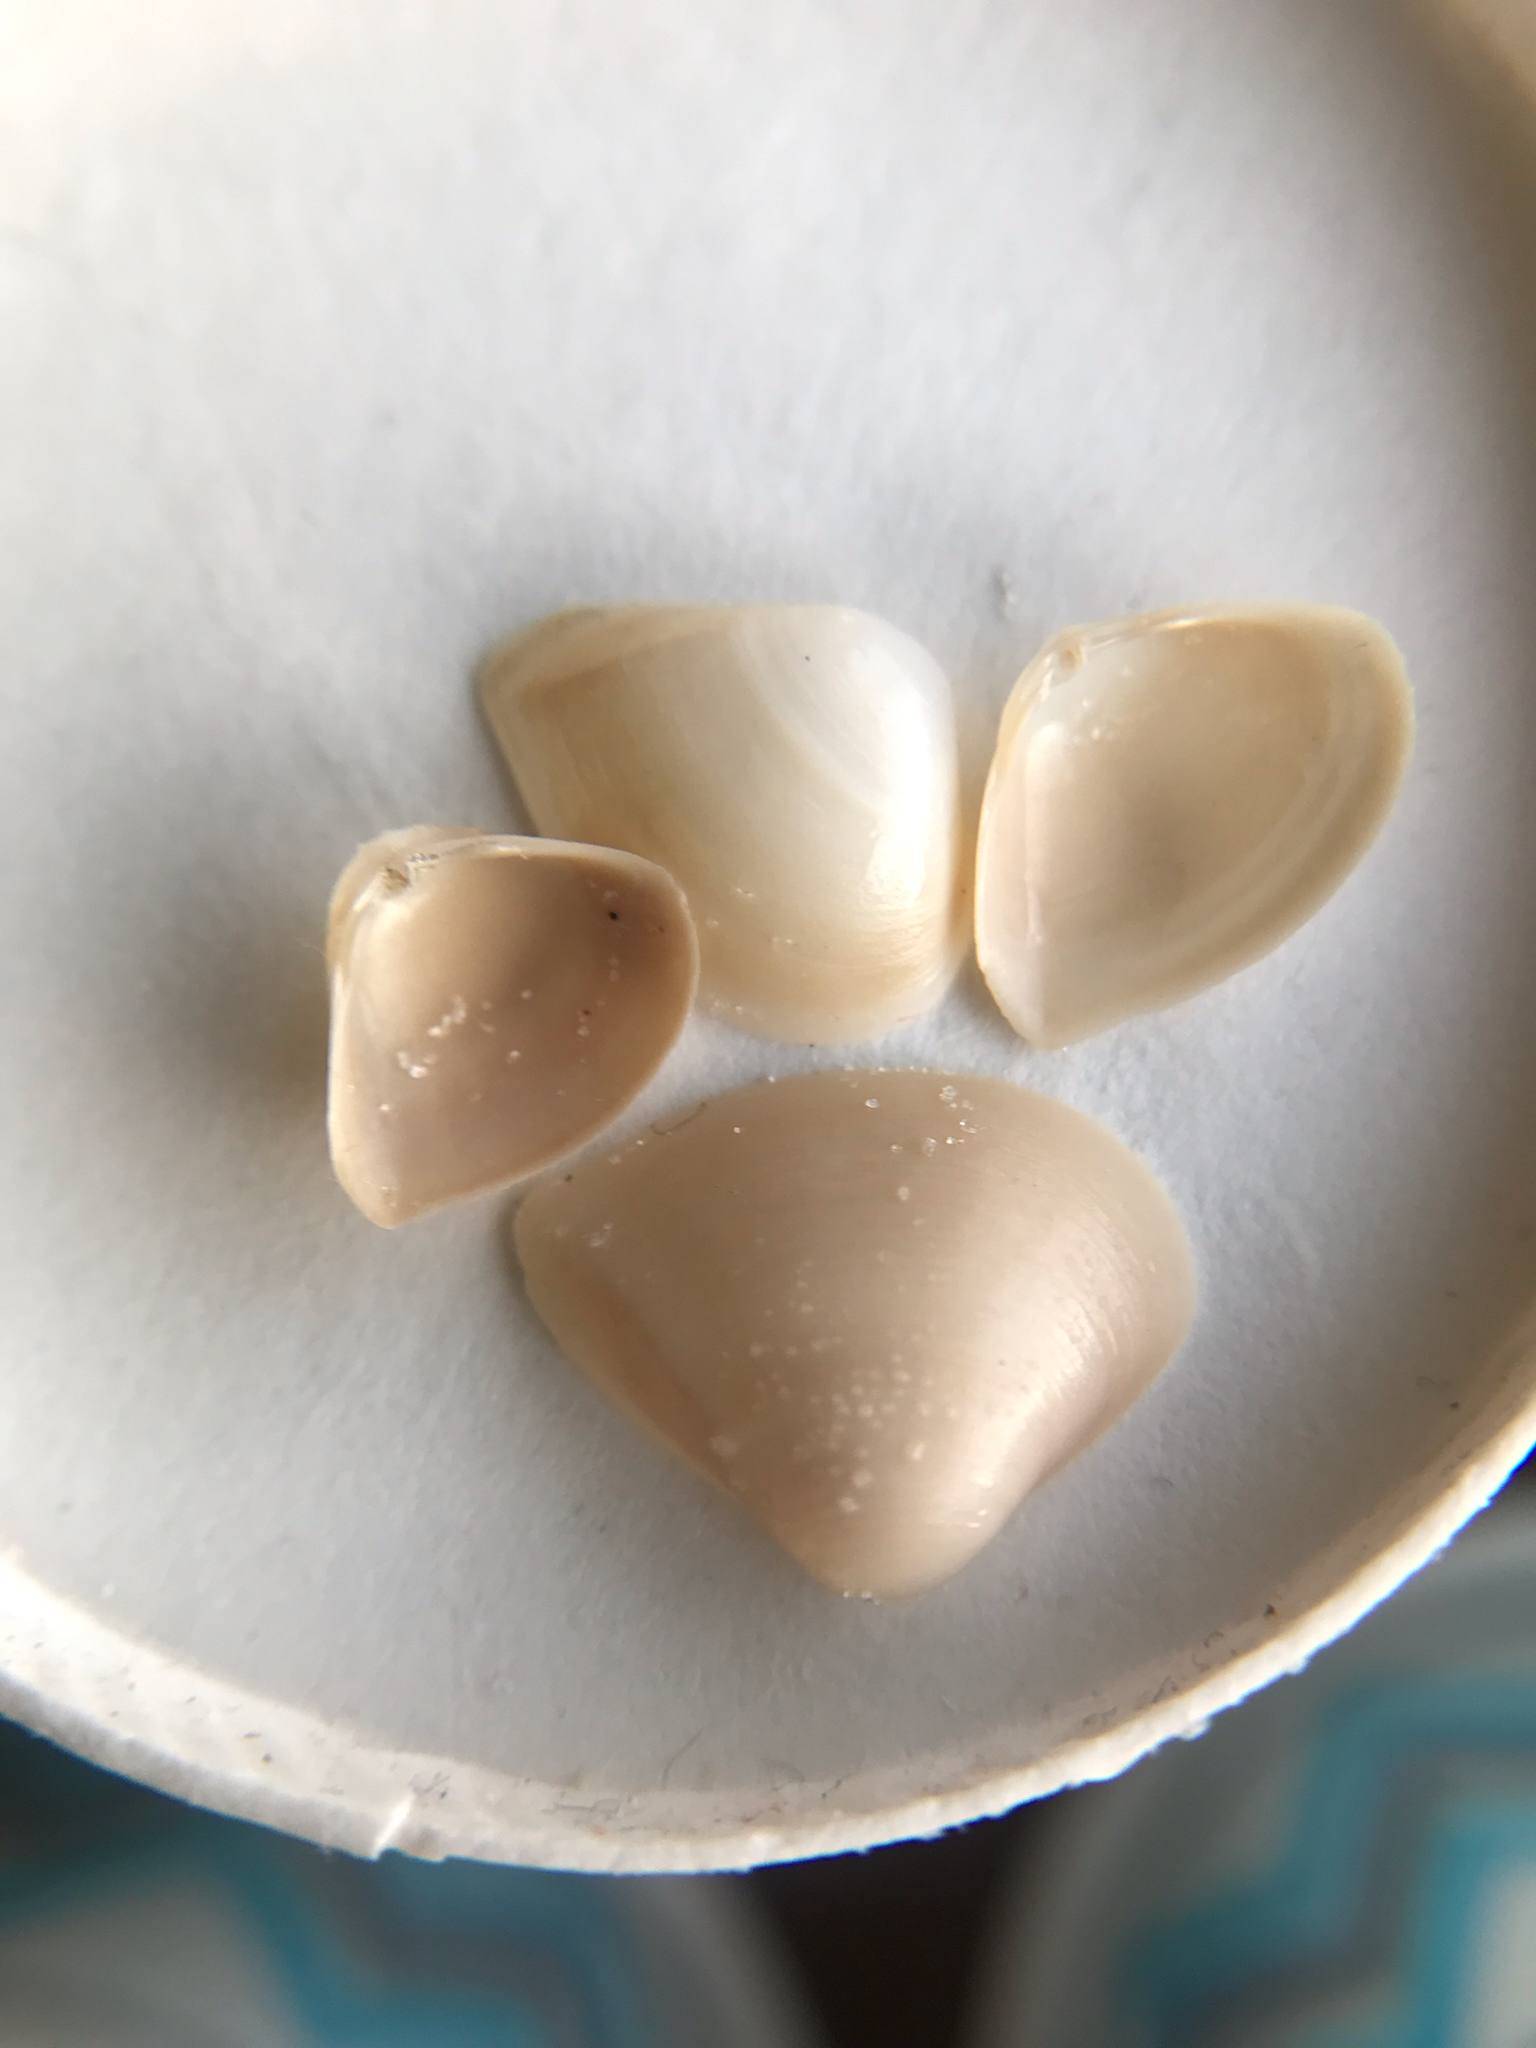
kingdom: Animalia
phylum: Mollusca
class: Bivalvia
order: Venerida
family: Mactridae
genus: Mulinia
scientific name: Mulinia lateralis
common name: Dwarf surfclam
